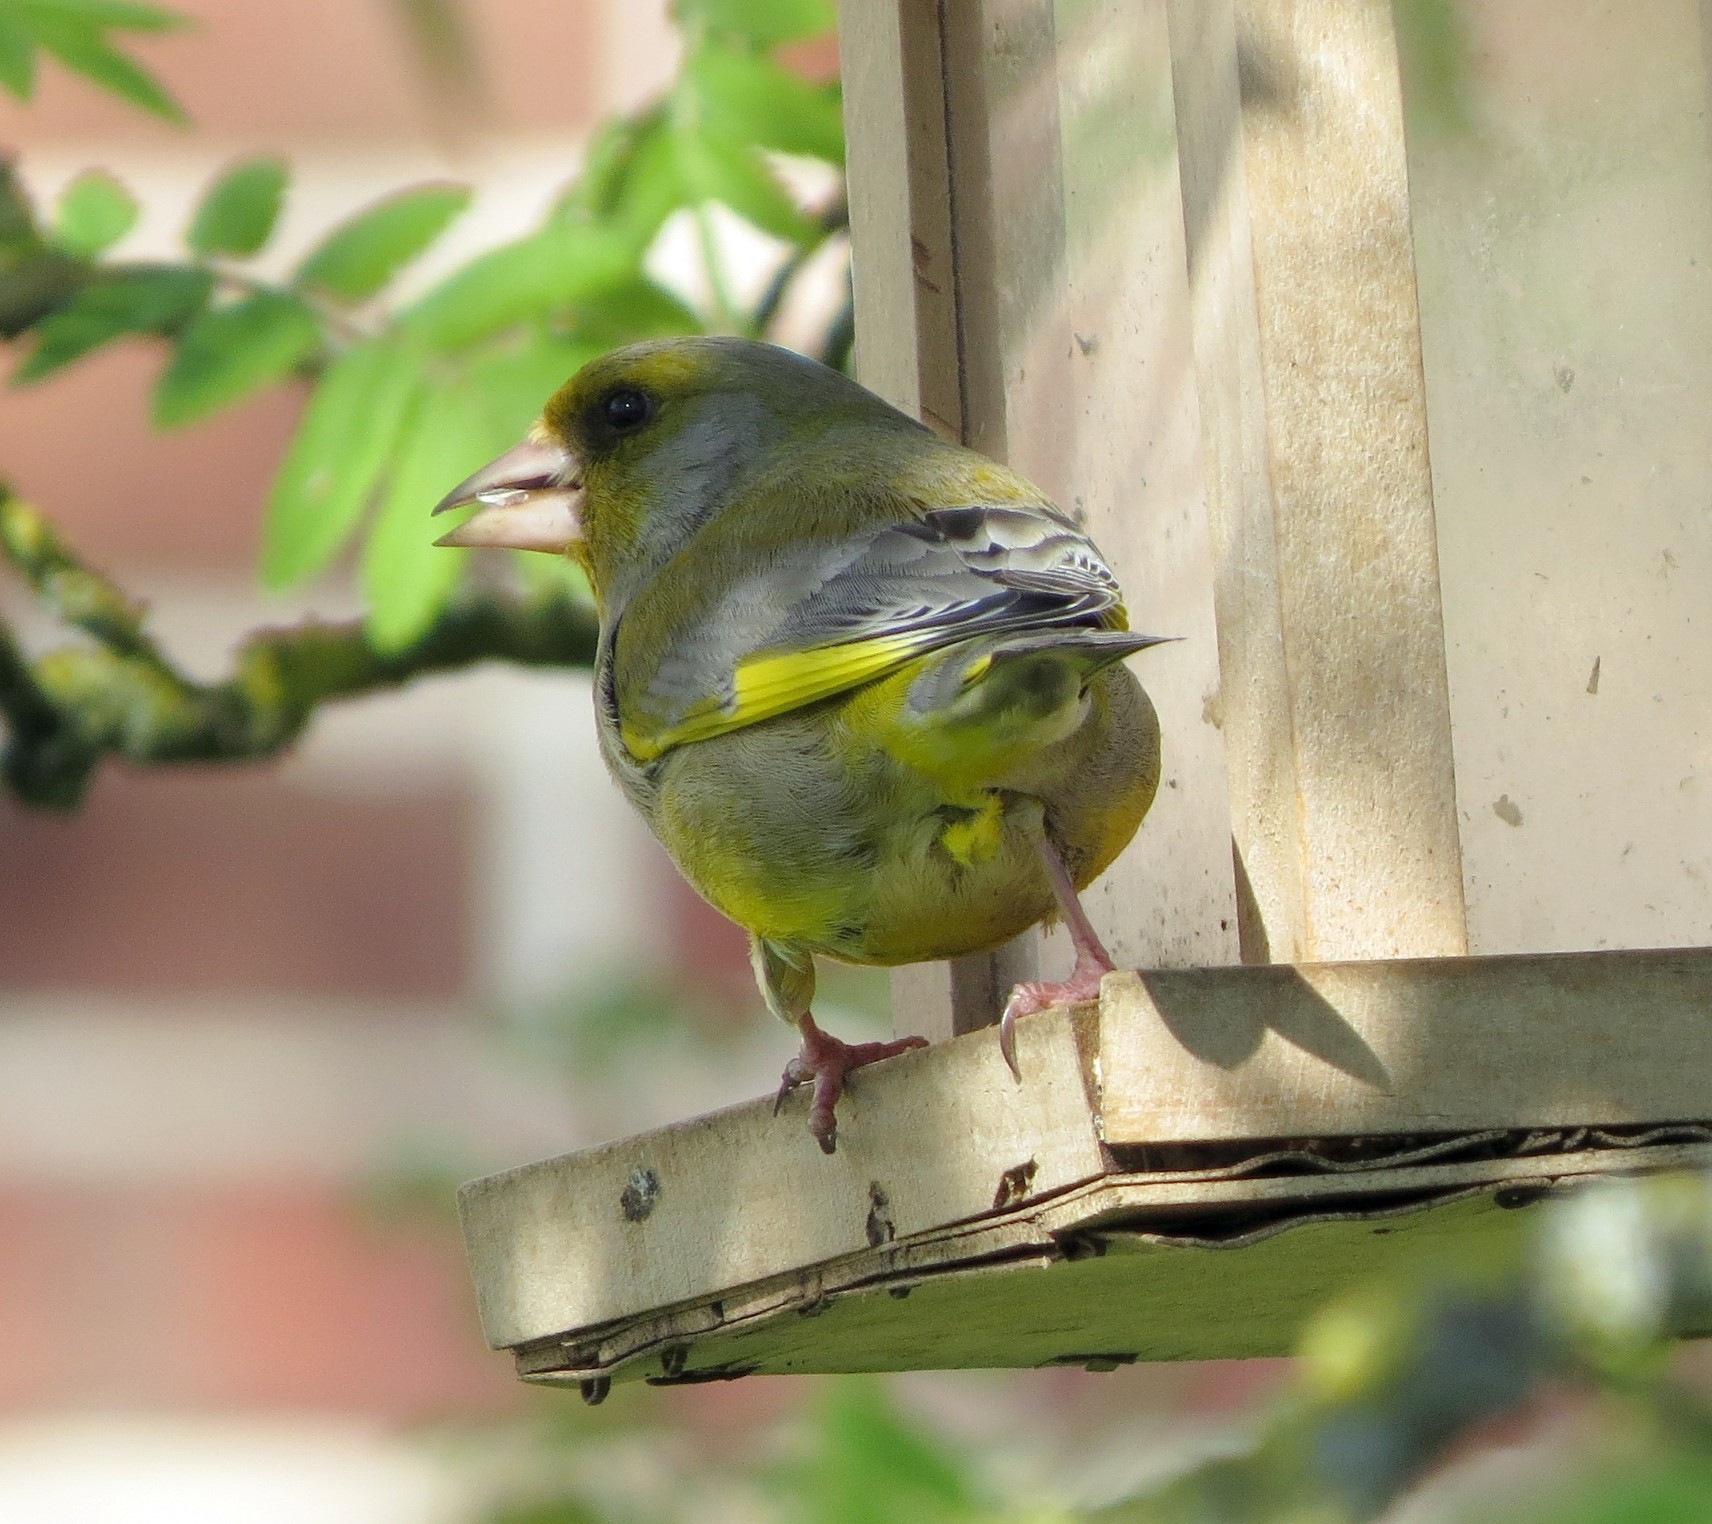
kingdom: Plantae
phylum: Tracheophyta
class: Liliopsida
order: Poales
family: Poaceae
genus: Chloris
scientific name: Chloris chloris
